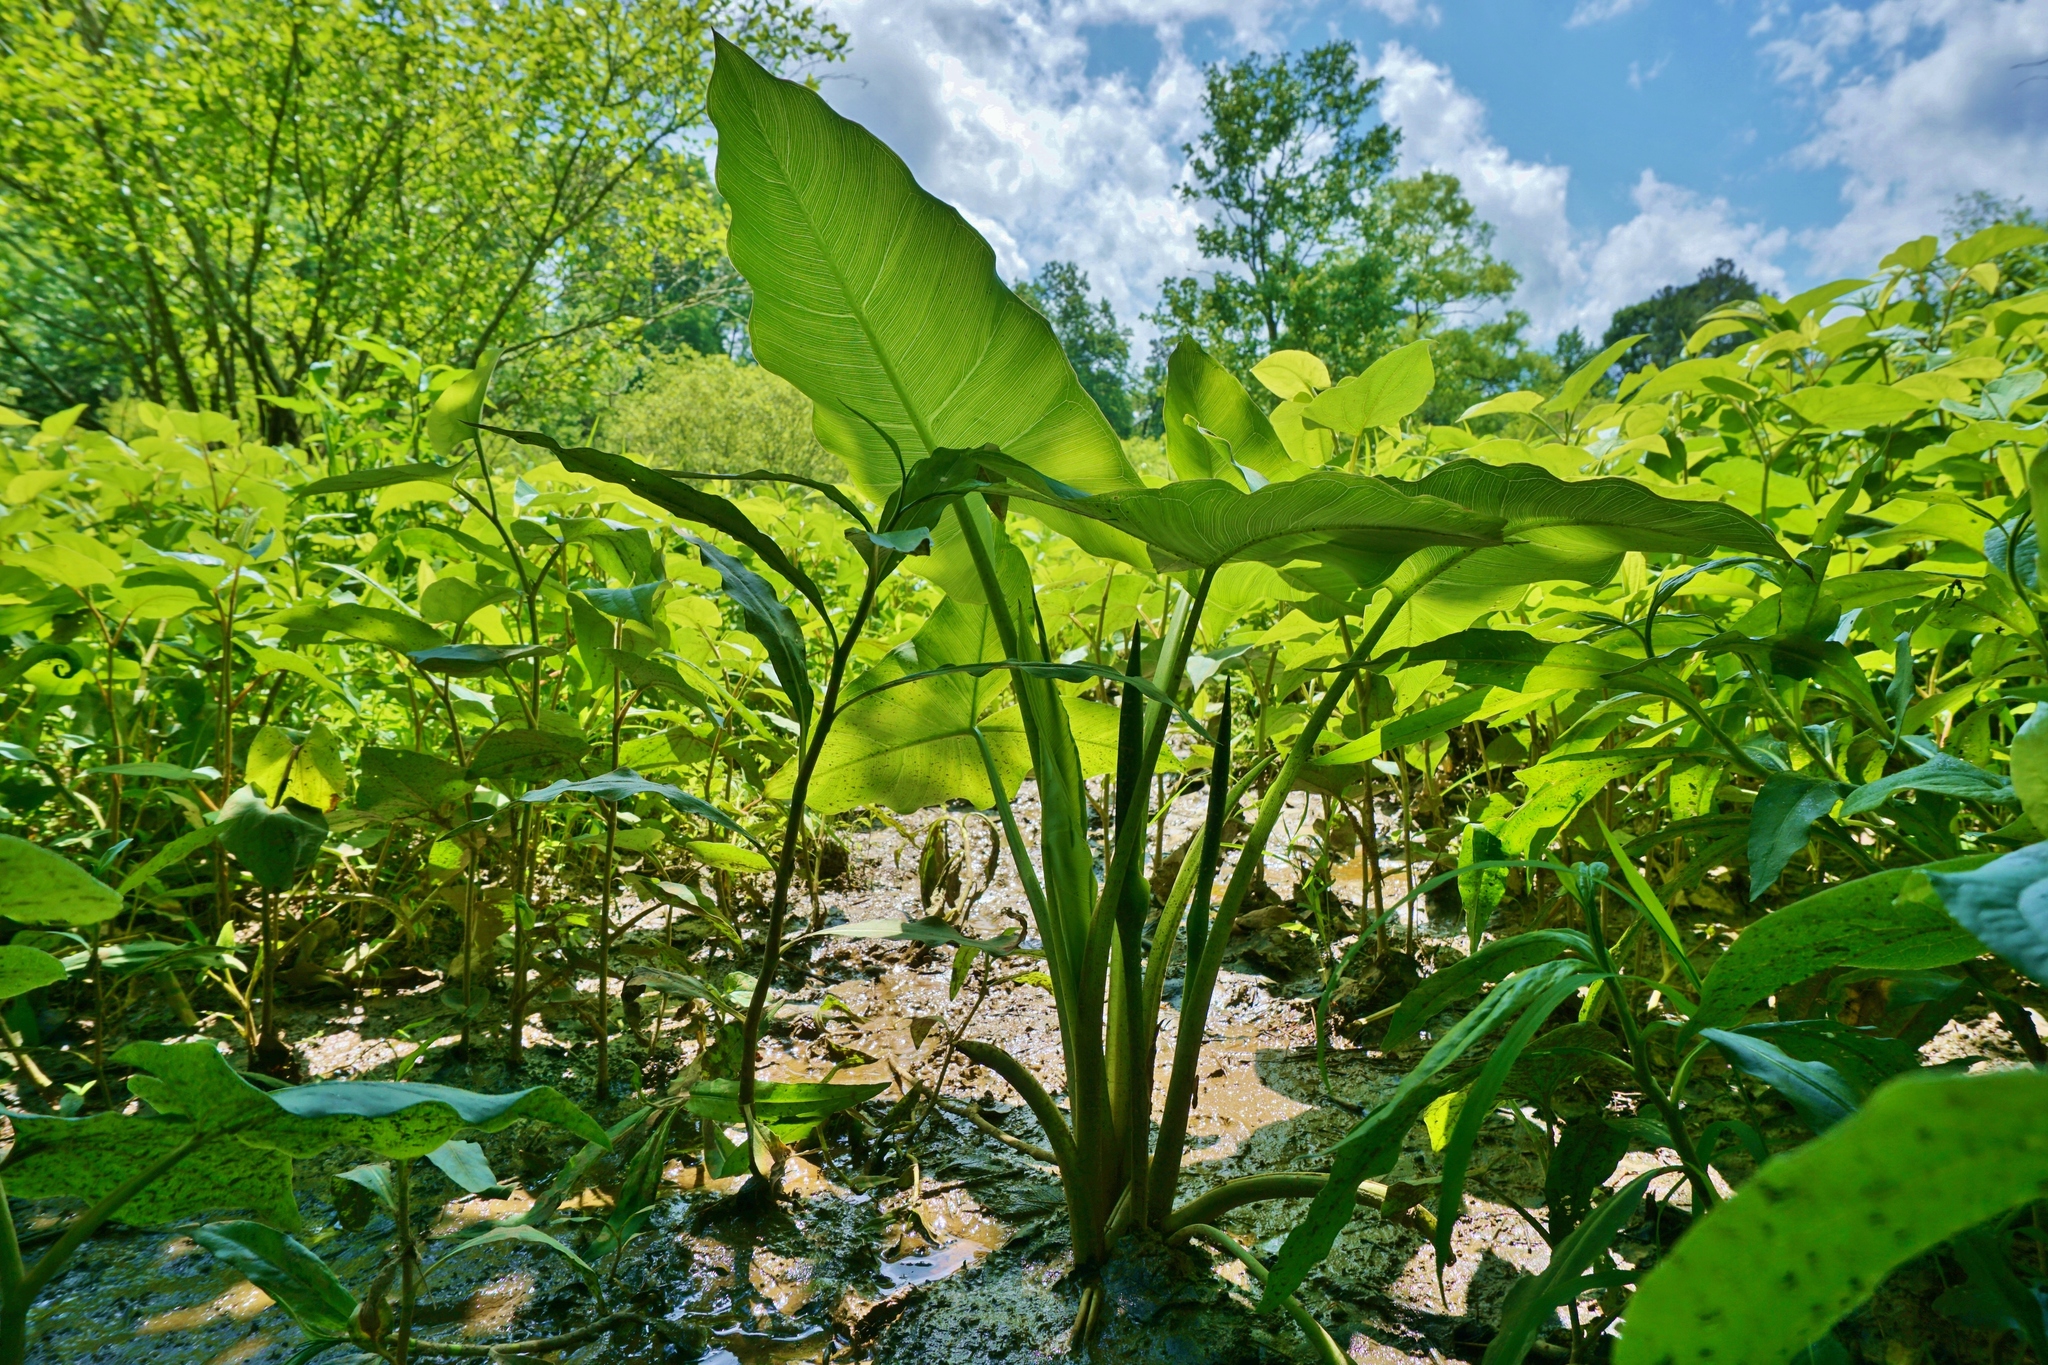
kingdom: Plantae
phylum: Tracheophyta
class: Liliopsida
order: Alismatales
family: Araceae
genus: Peltandra
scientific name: Peltandra virginica
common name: Arrow arum
